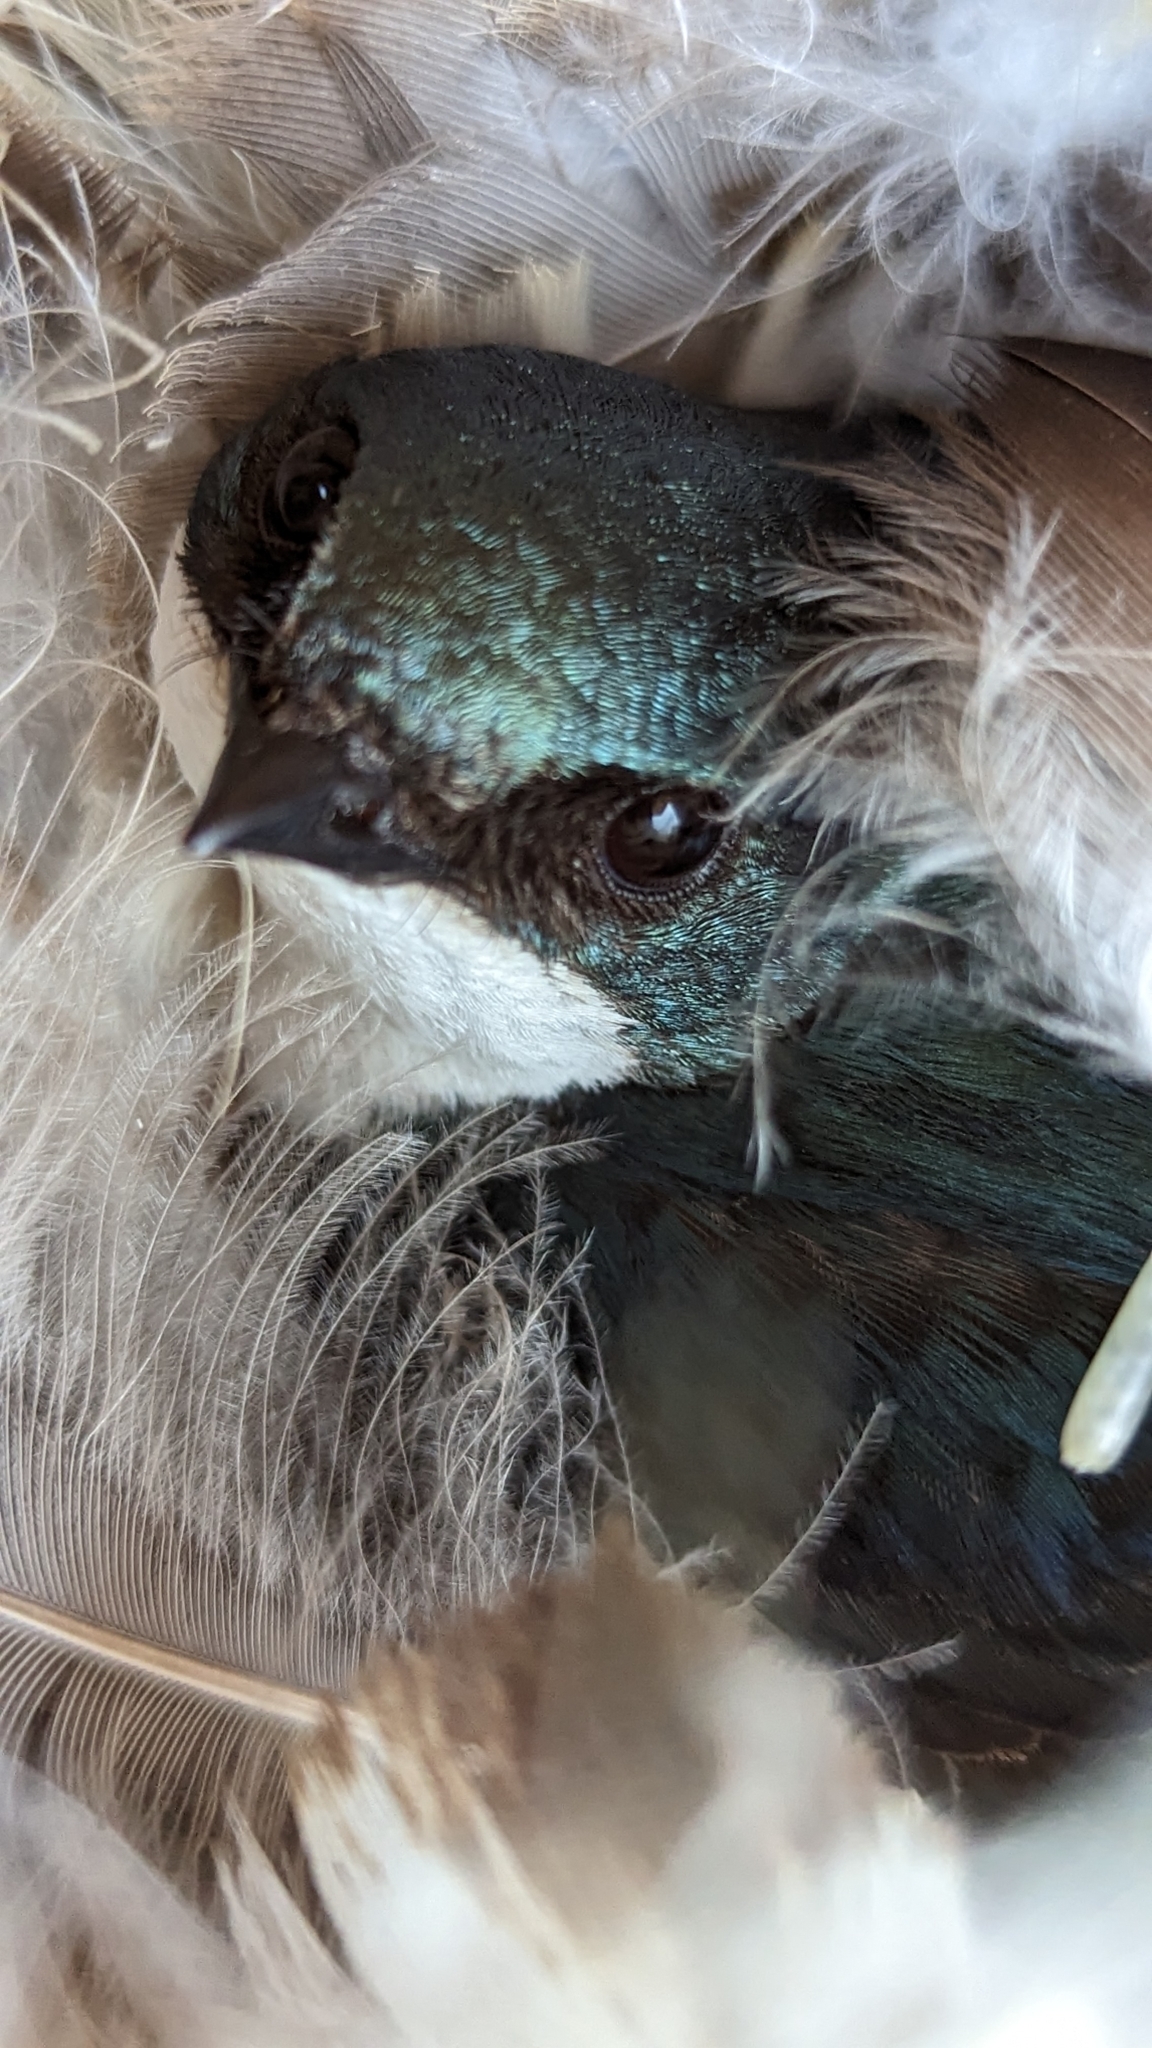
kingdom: Animalia
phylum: Chordata
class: Aves
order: Passeriformes
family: Hirundinidae
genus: Tachycineta
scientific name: Tachycineta bicolor
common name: Tree swallow
